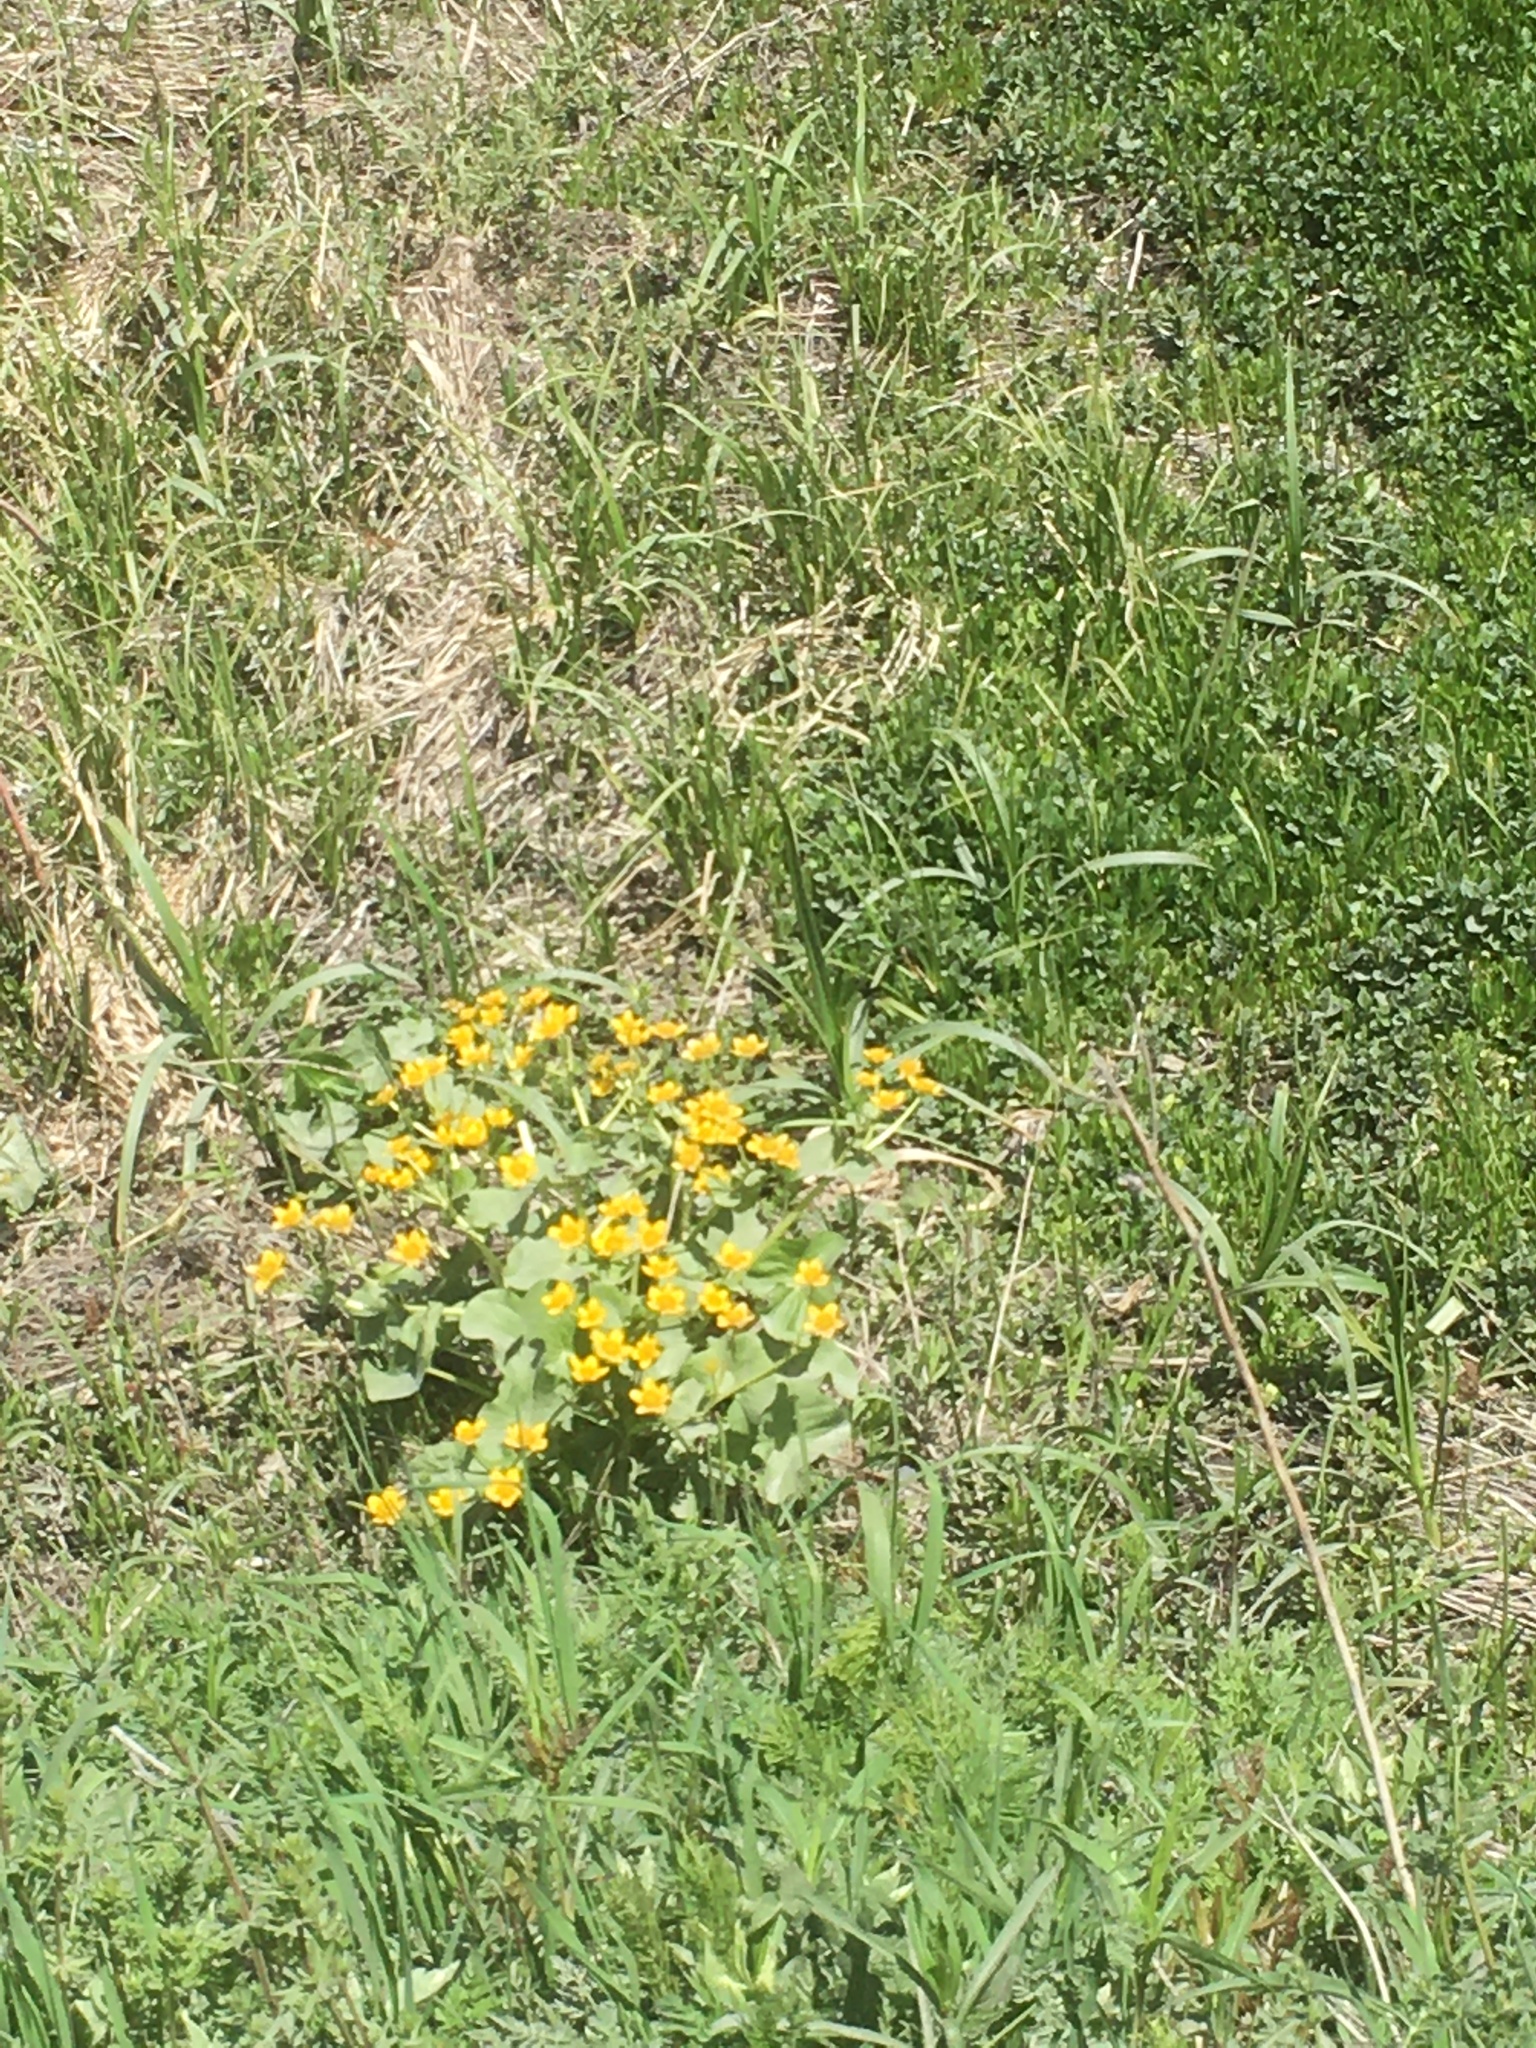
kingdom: Plantae
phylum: Tracheophyta
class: Magnoliopsida
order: Ranunculales
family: Ranunculaceae
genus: Caltha
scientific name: Caltha palustris
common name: Marsh marigold
